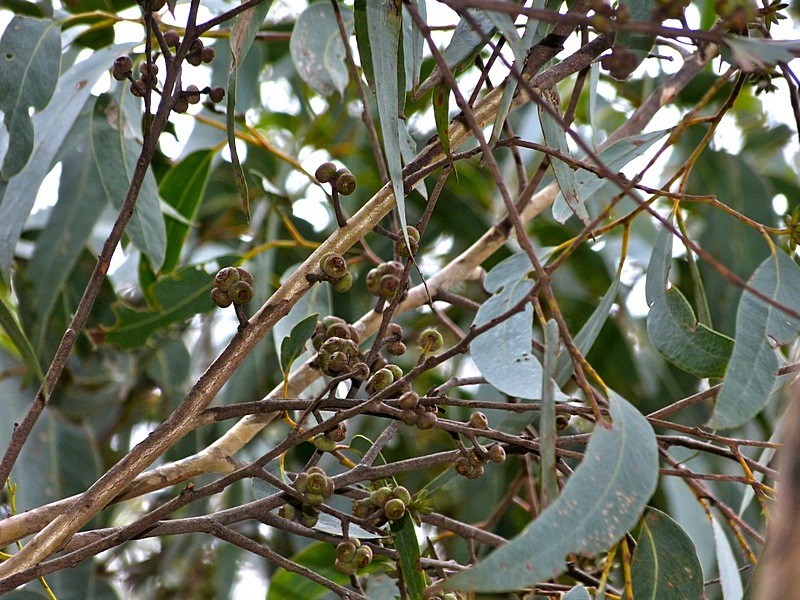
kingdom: Plantae
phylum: Tracheophyta
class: Magnoliopsida
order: Myrtales
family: Myrtaceae
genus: Eucalyptus
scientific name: Eucalyptus agglomerata
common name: Blue-leaved stringybark
